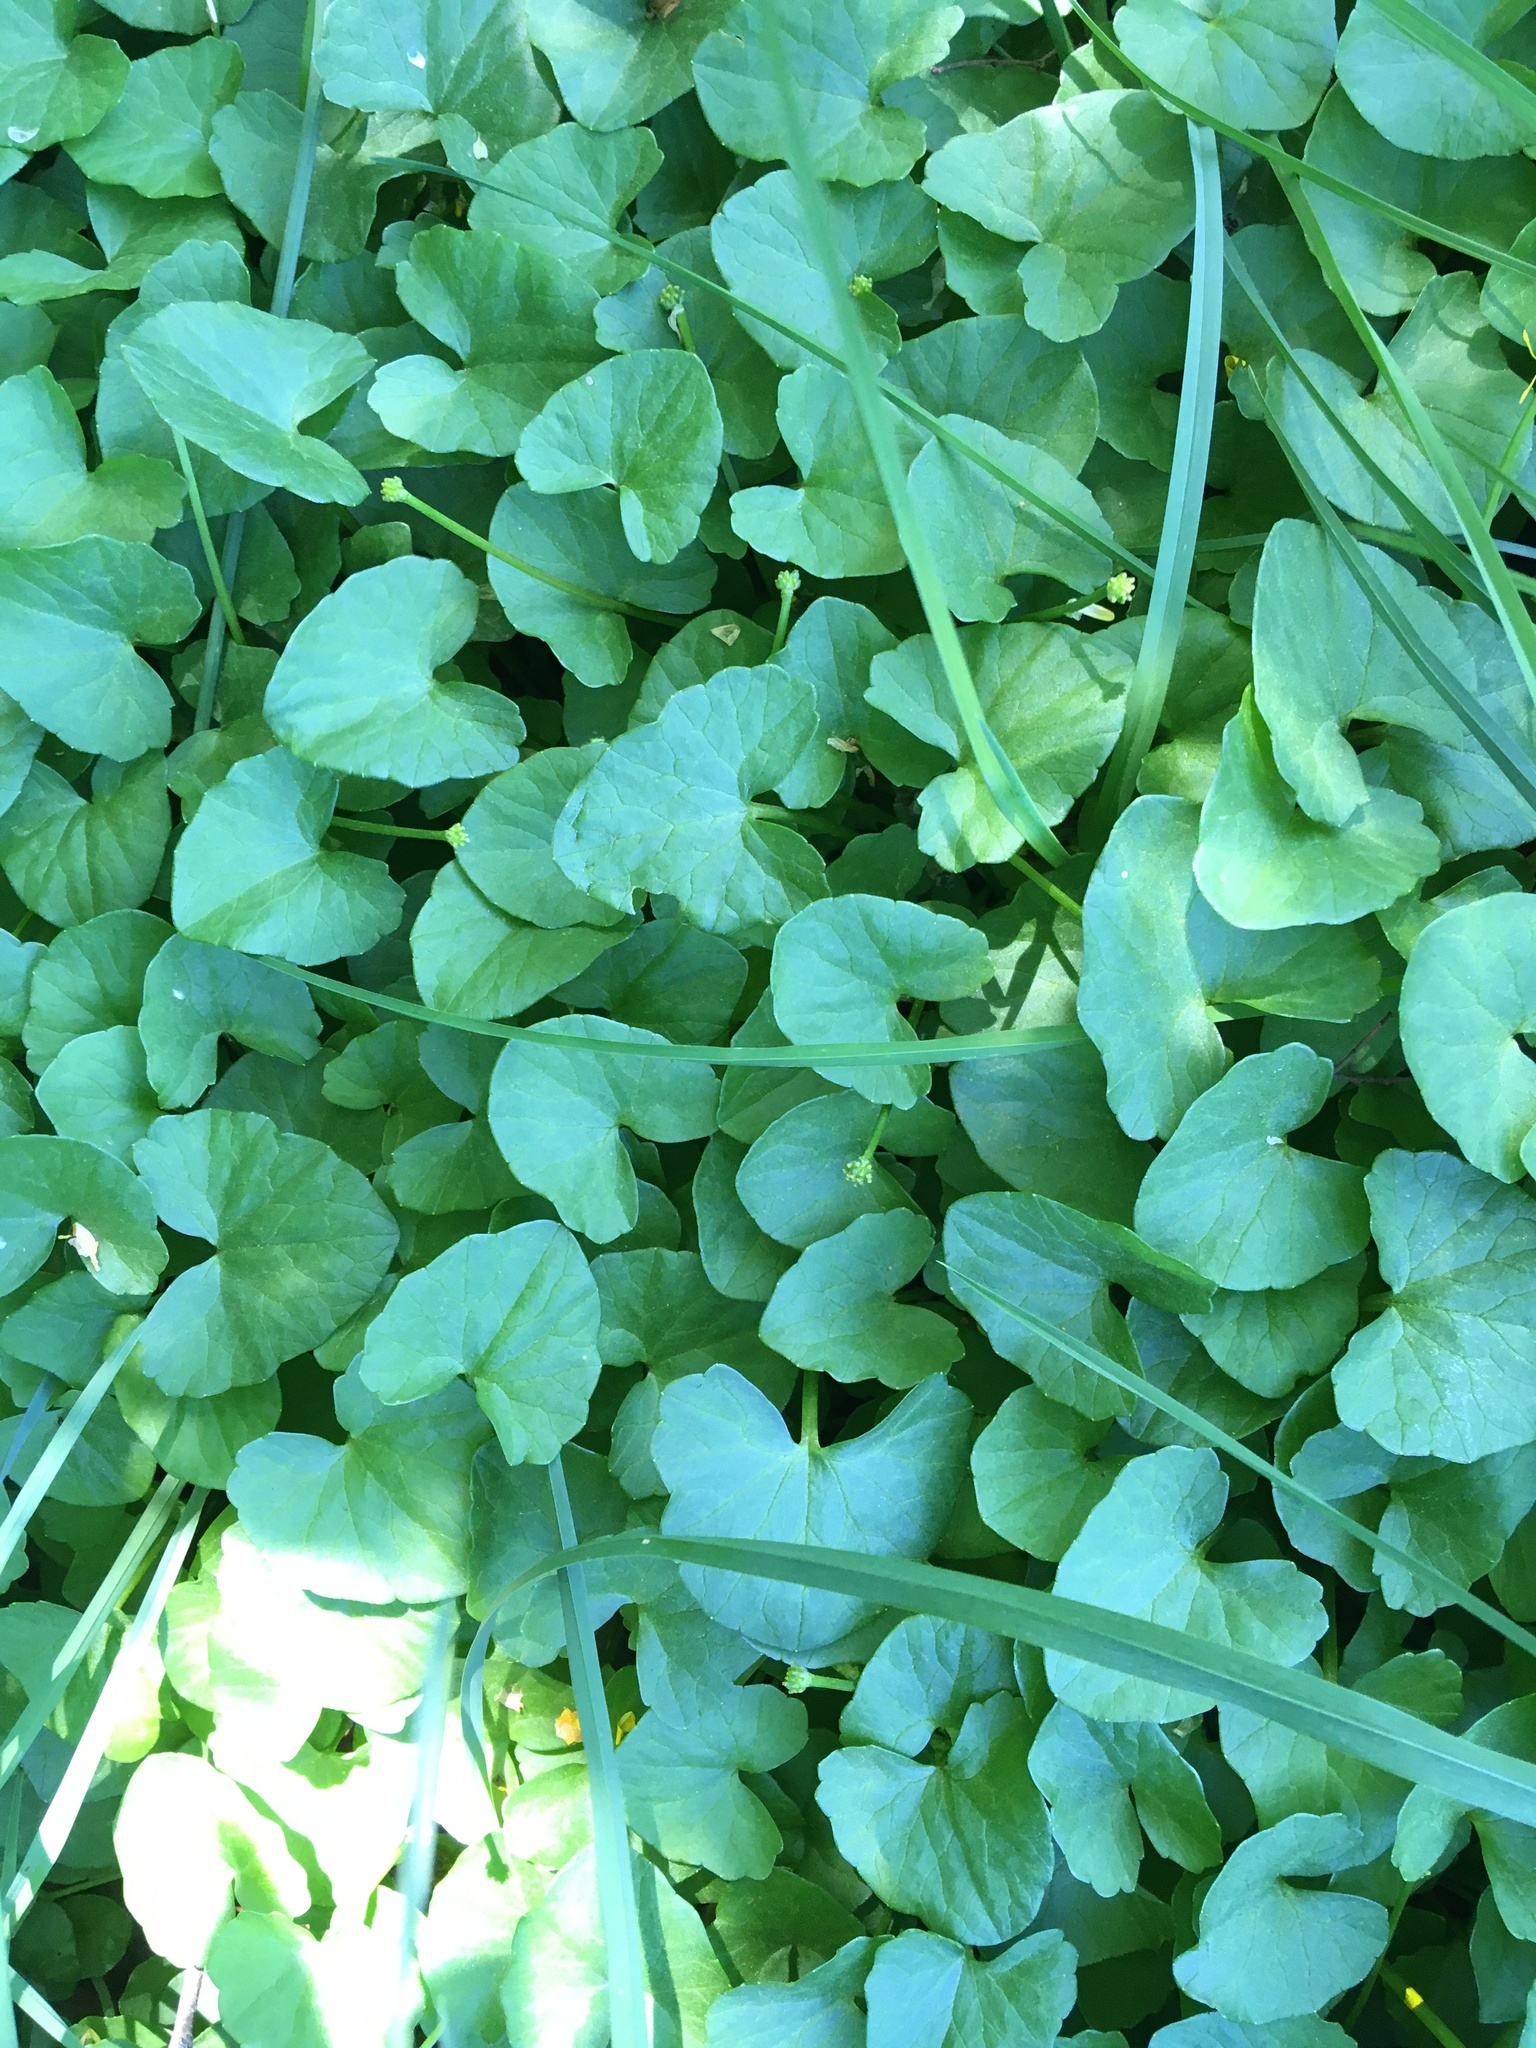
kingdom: Plantae
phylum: Tracheophyta
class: Magnoliopsida
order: Ranunculales
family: Ranunculaceae
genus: Ficaria
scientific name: Ficaria verna
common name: Lesser celandine
